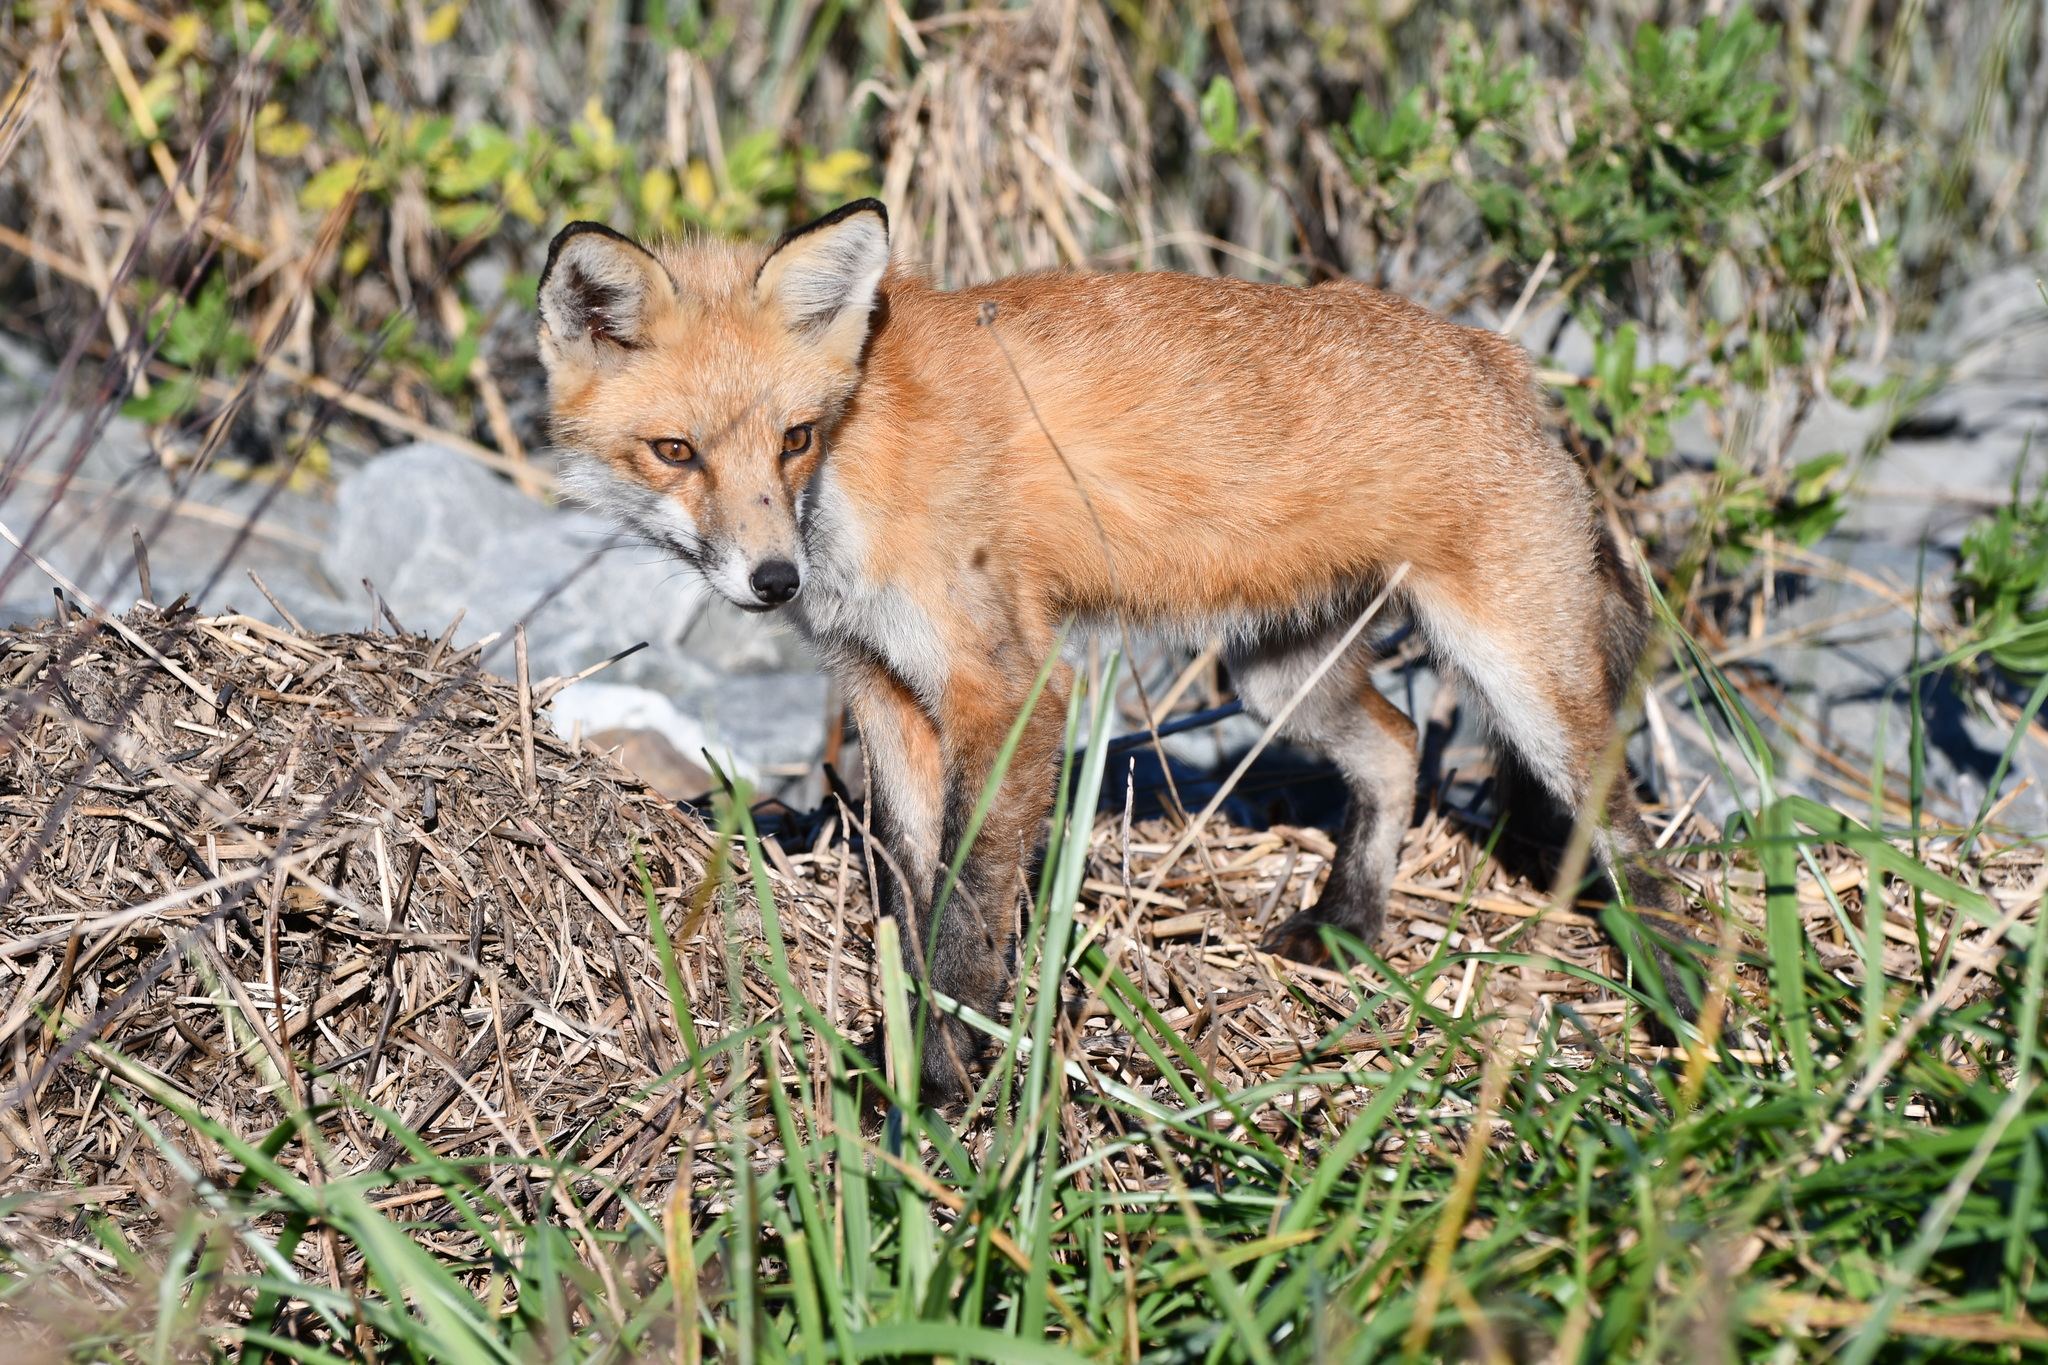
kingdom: Animalia
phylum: Chordata
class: Mammalia
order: Carnivora
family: Canidae
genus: Vulpes
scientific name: Vulpes vulpes
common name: Red fox
